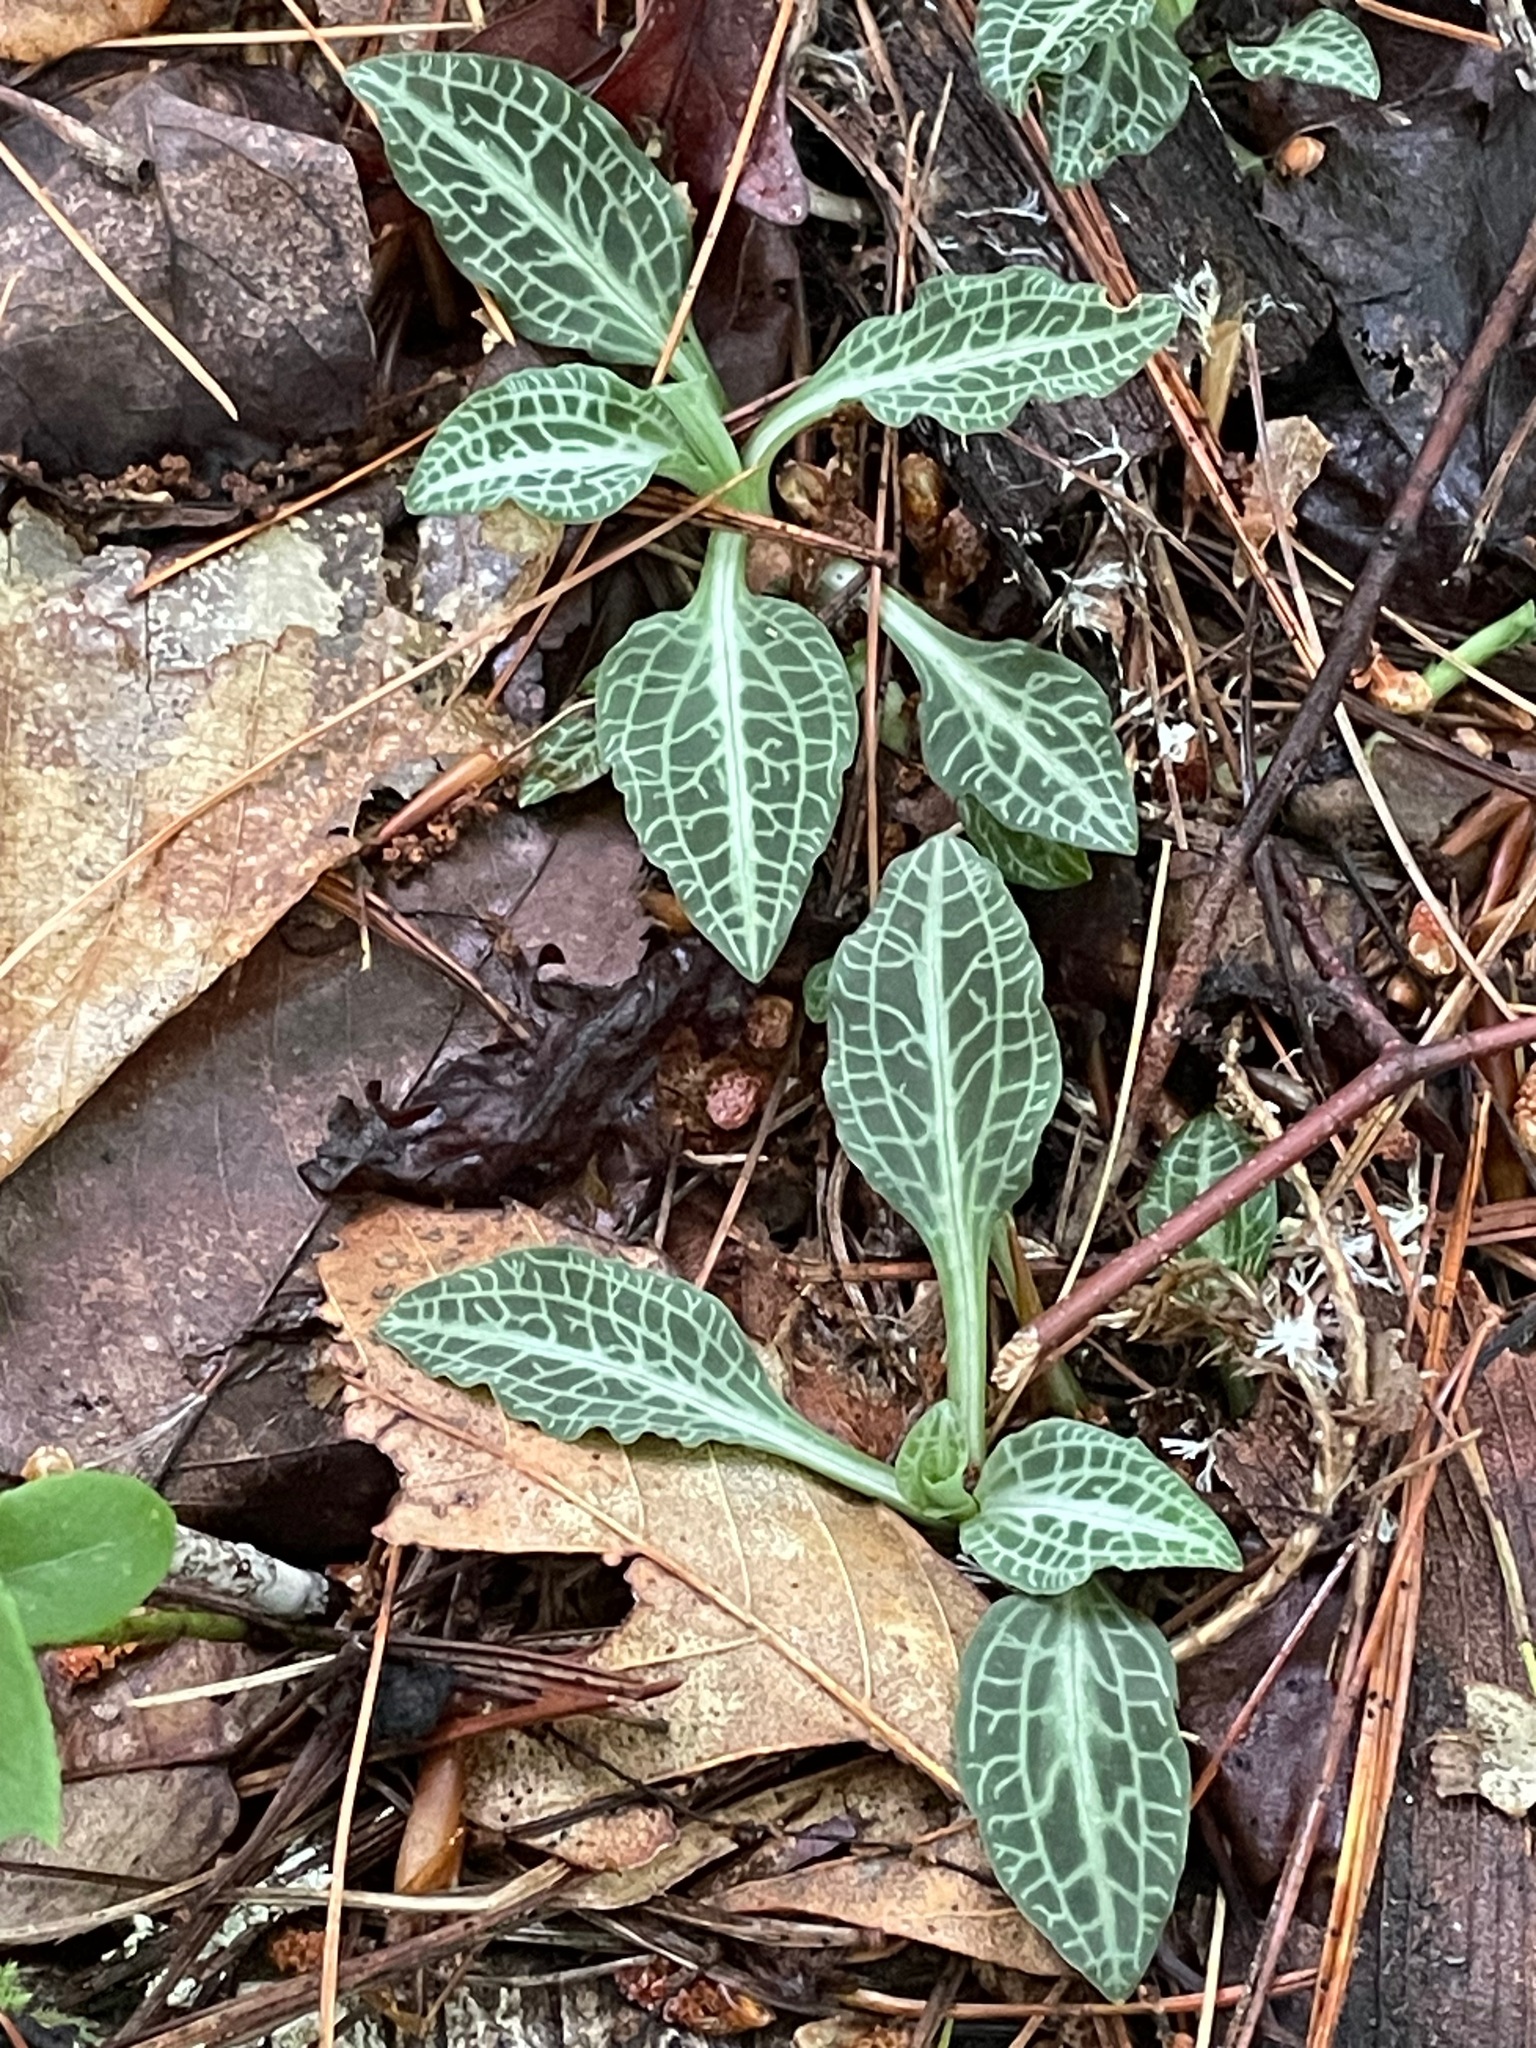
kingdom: Plantae
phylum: Tracheophyta
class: Liliopsida
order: Asparagales
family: Orchidaceae
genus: Goodyera
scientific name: Goodyera pubescens
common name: Downy rattlesnake-plantain
